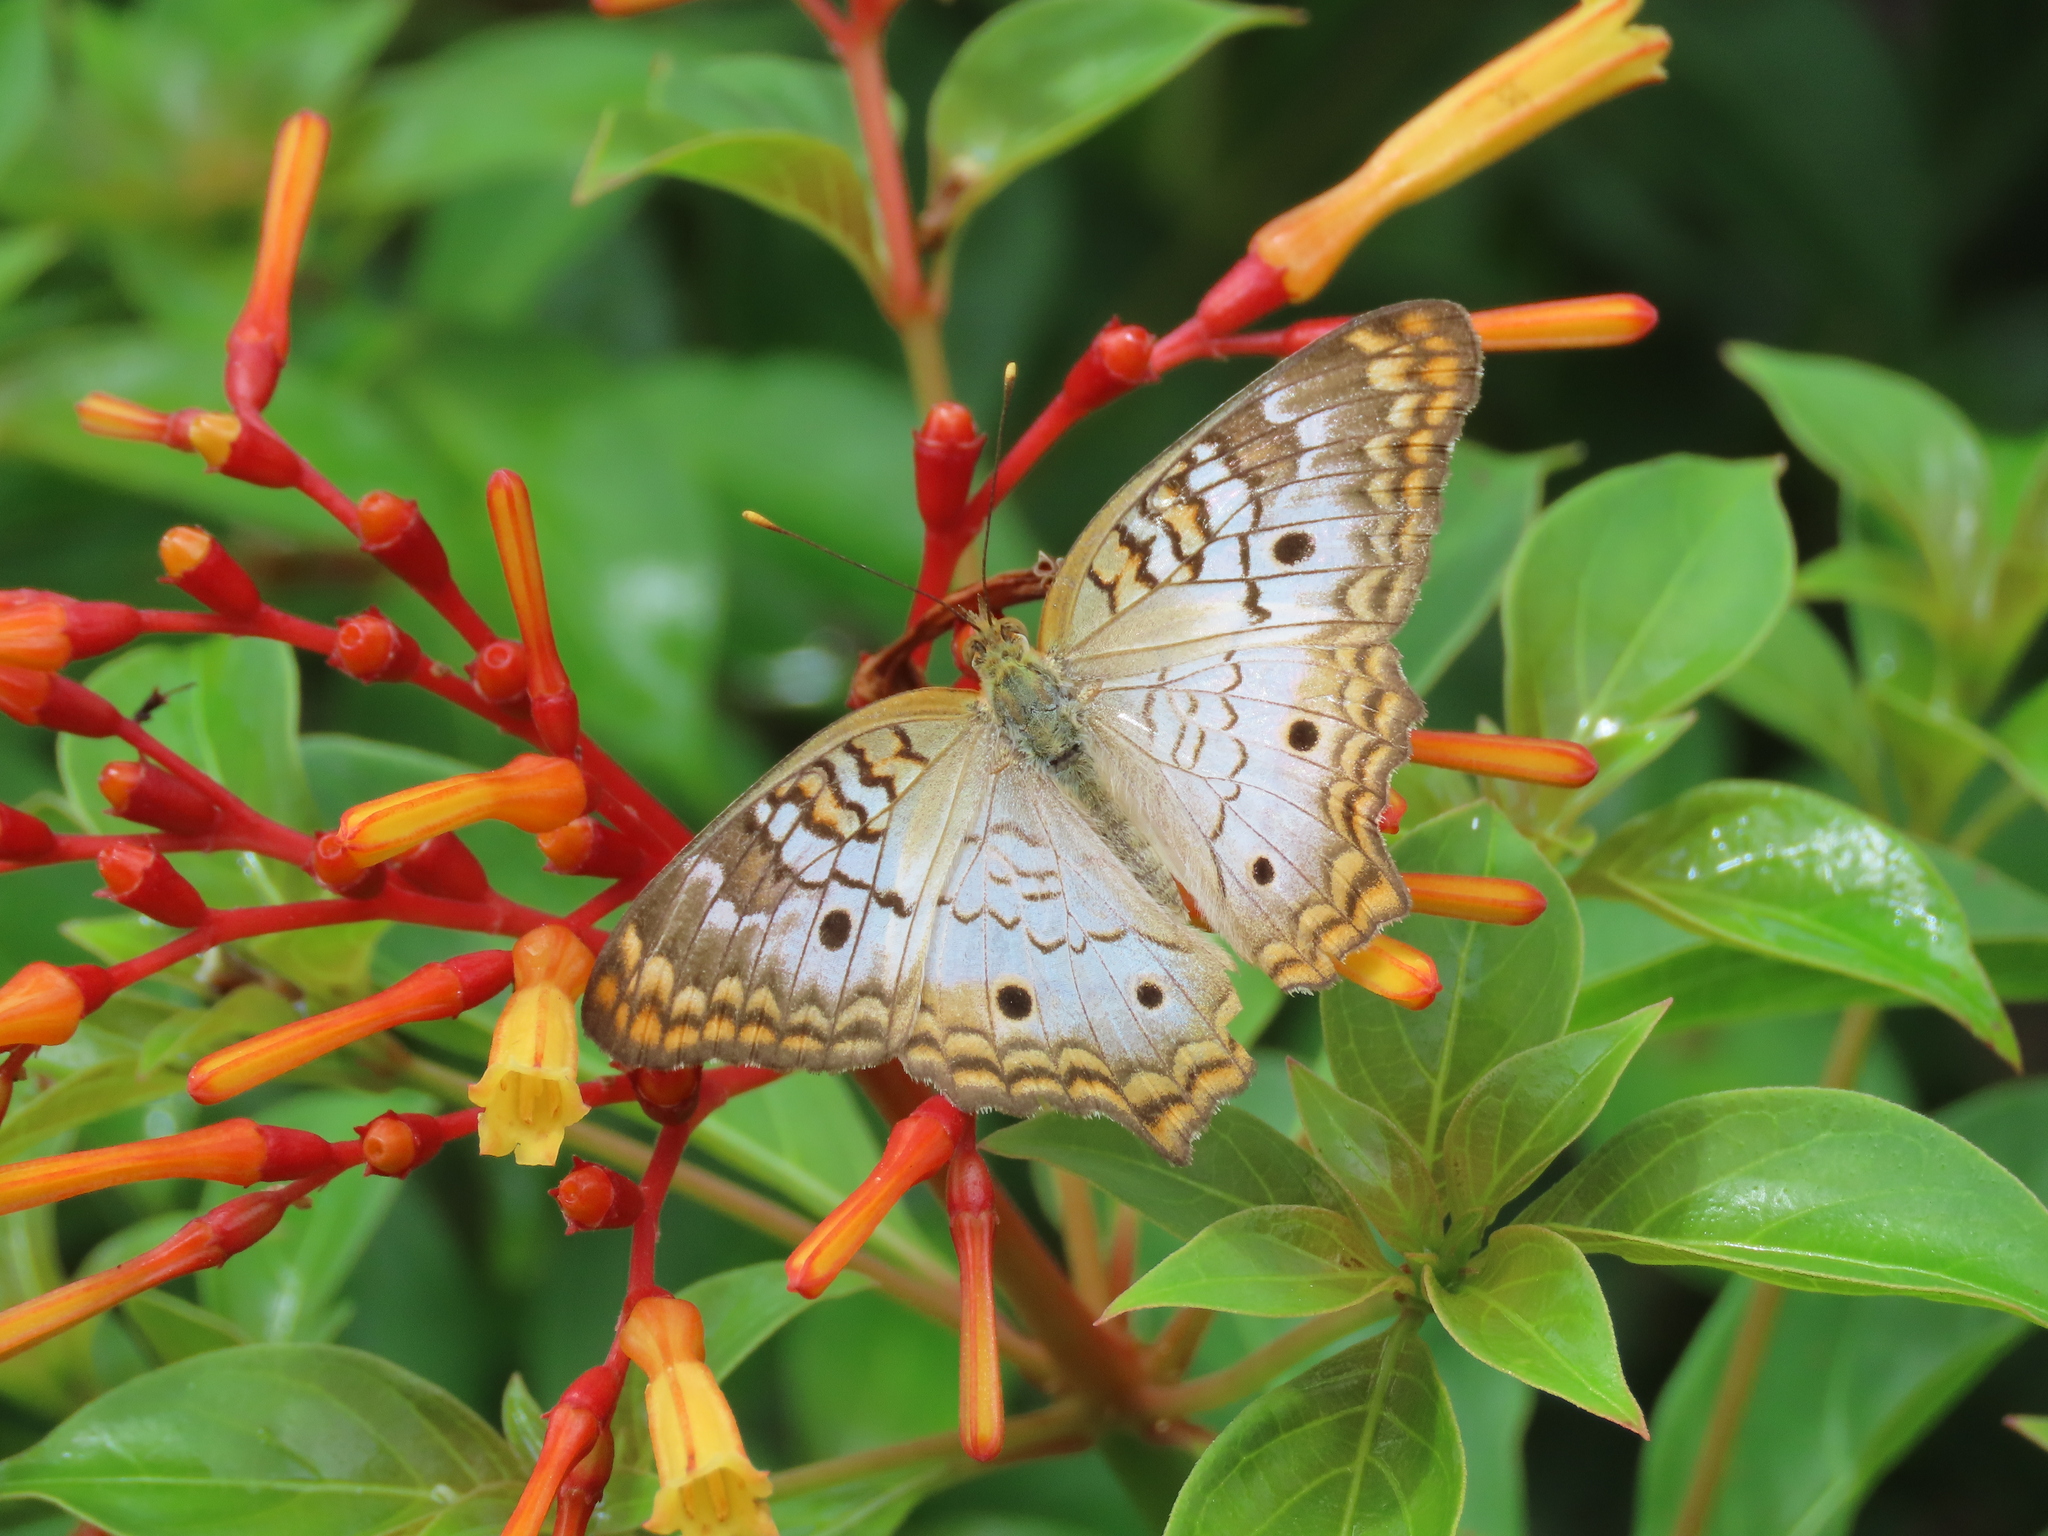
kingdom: Animalia
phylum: Arthropoda
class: Insecta
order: Lepidoptera
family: Nymphalidae
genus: Anartia
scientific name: Anartia jatrophae
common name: White peacock
